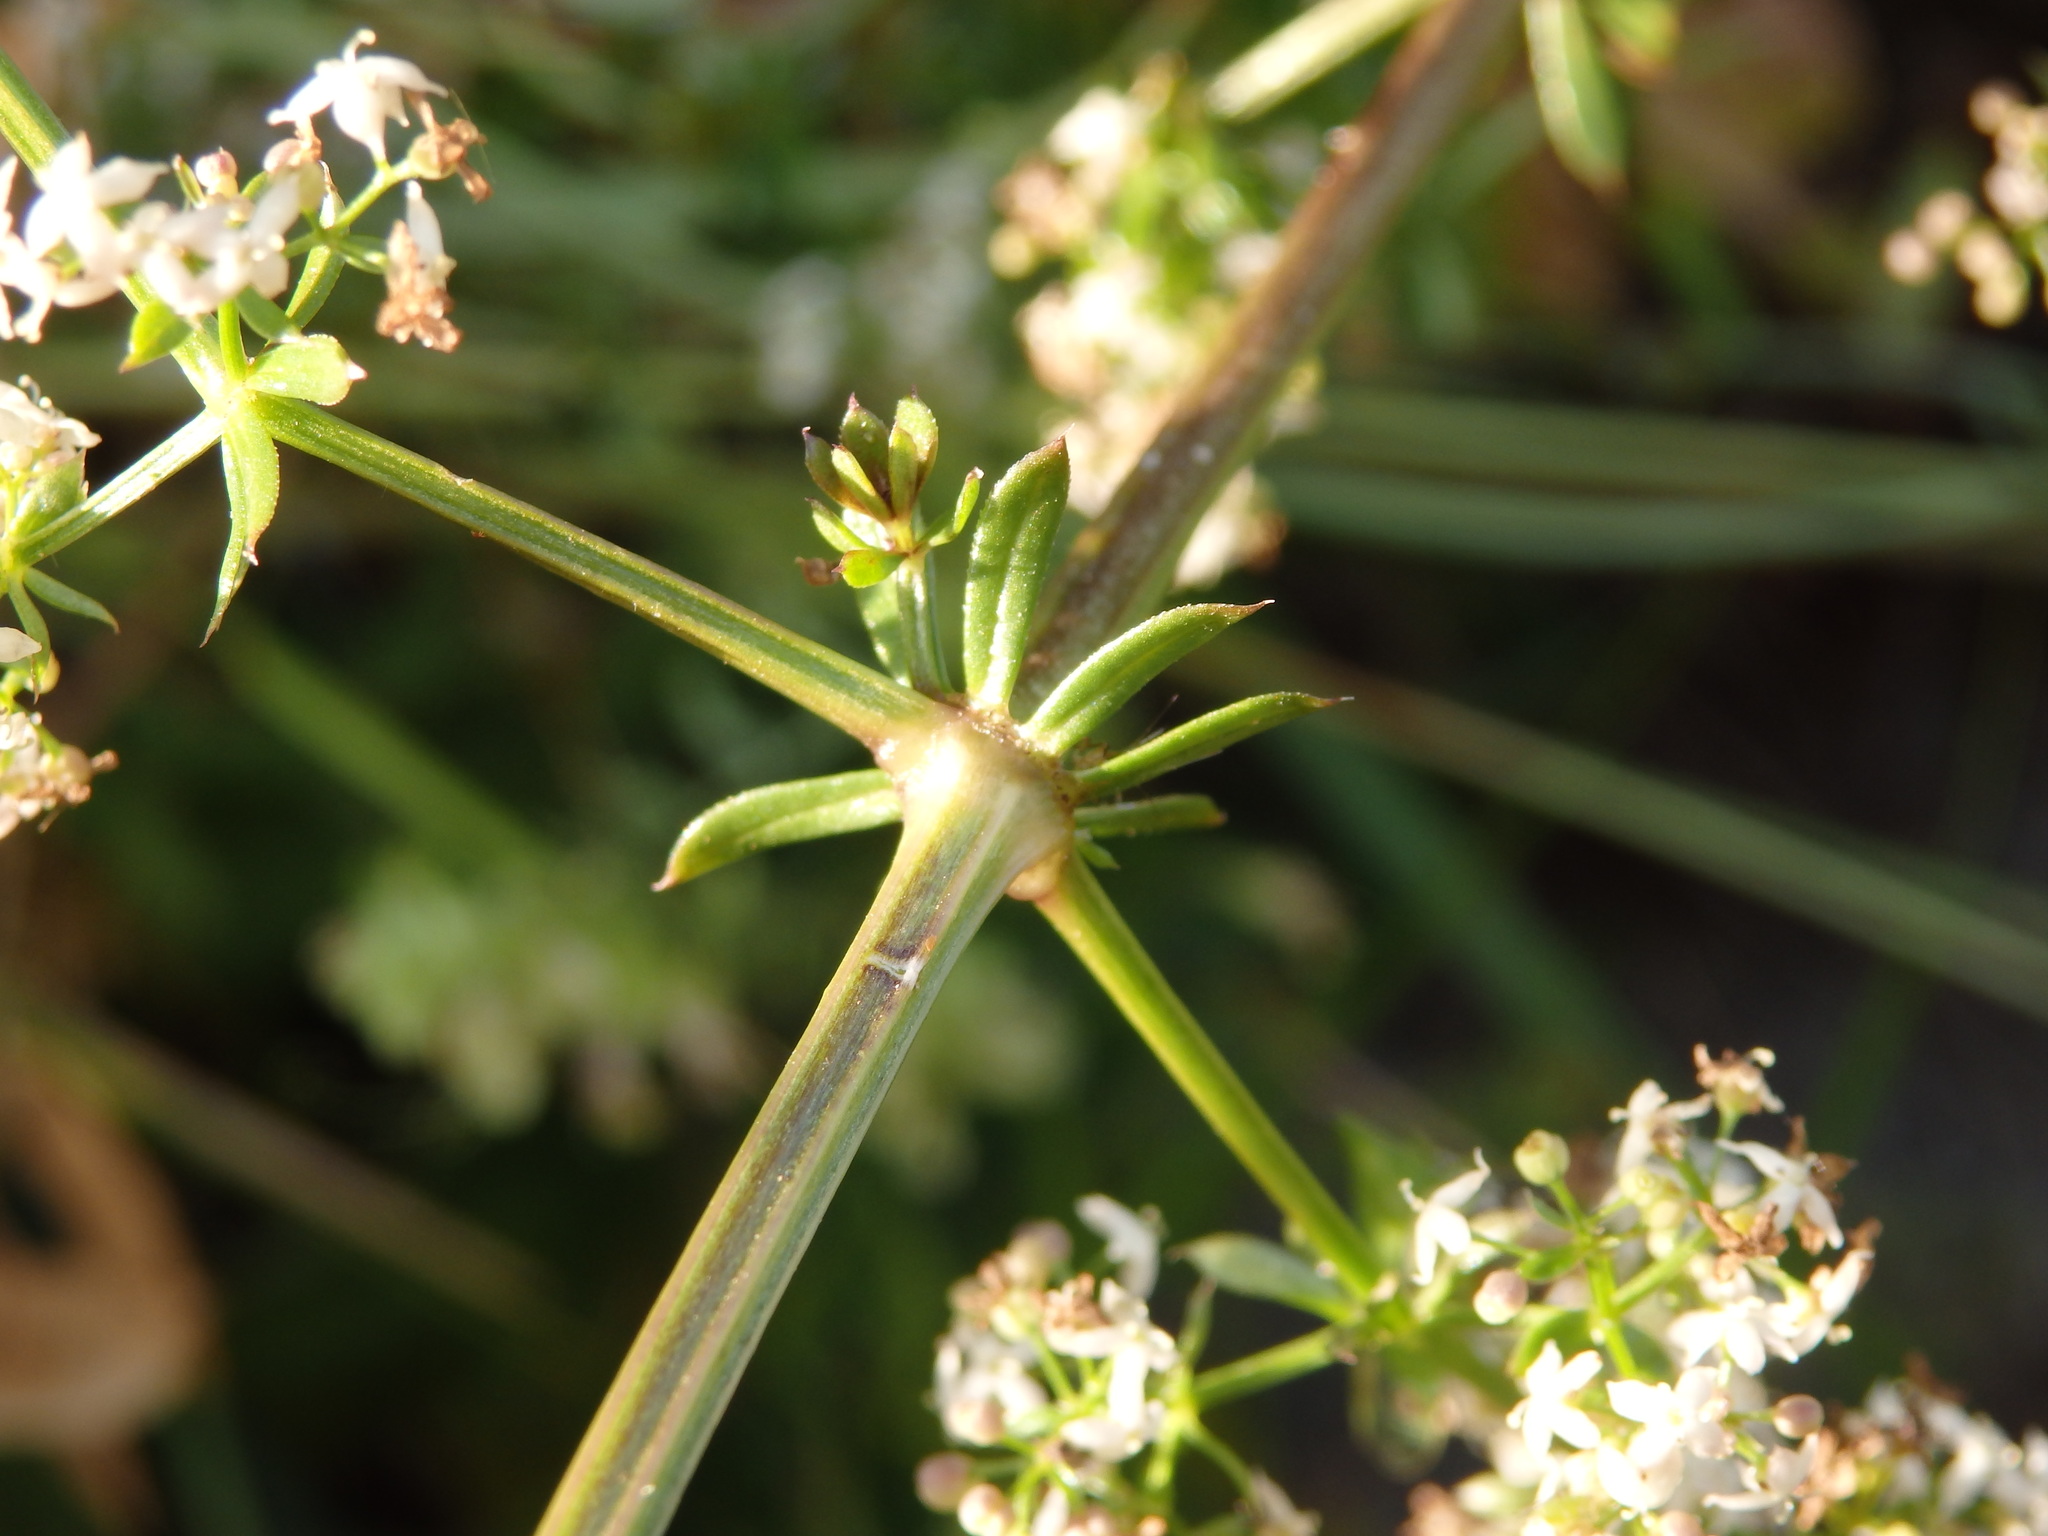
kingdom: Plantae
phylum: Tracheophyta
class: Magnoliopsida
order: Gentianales
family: Rubiaceae
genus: Galium
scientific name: Galium saxatile
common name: Heath bedstraw
